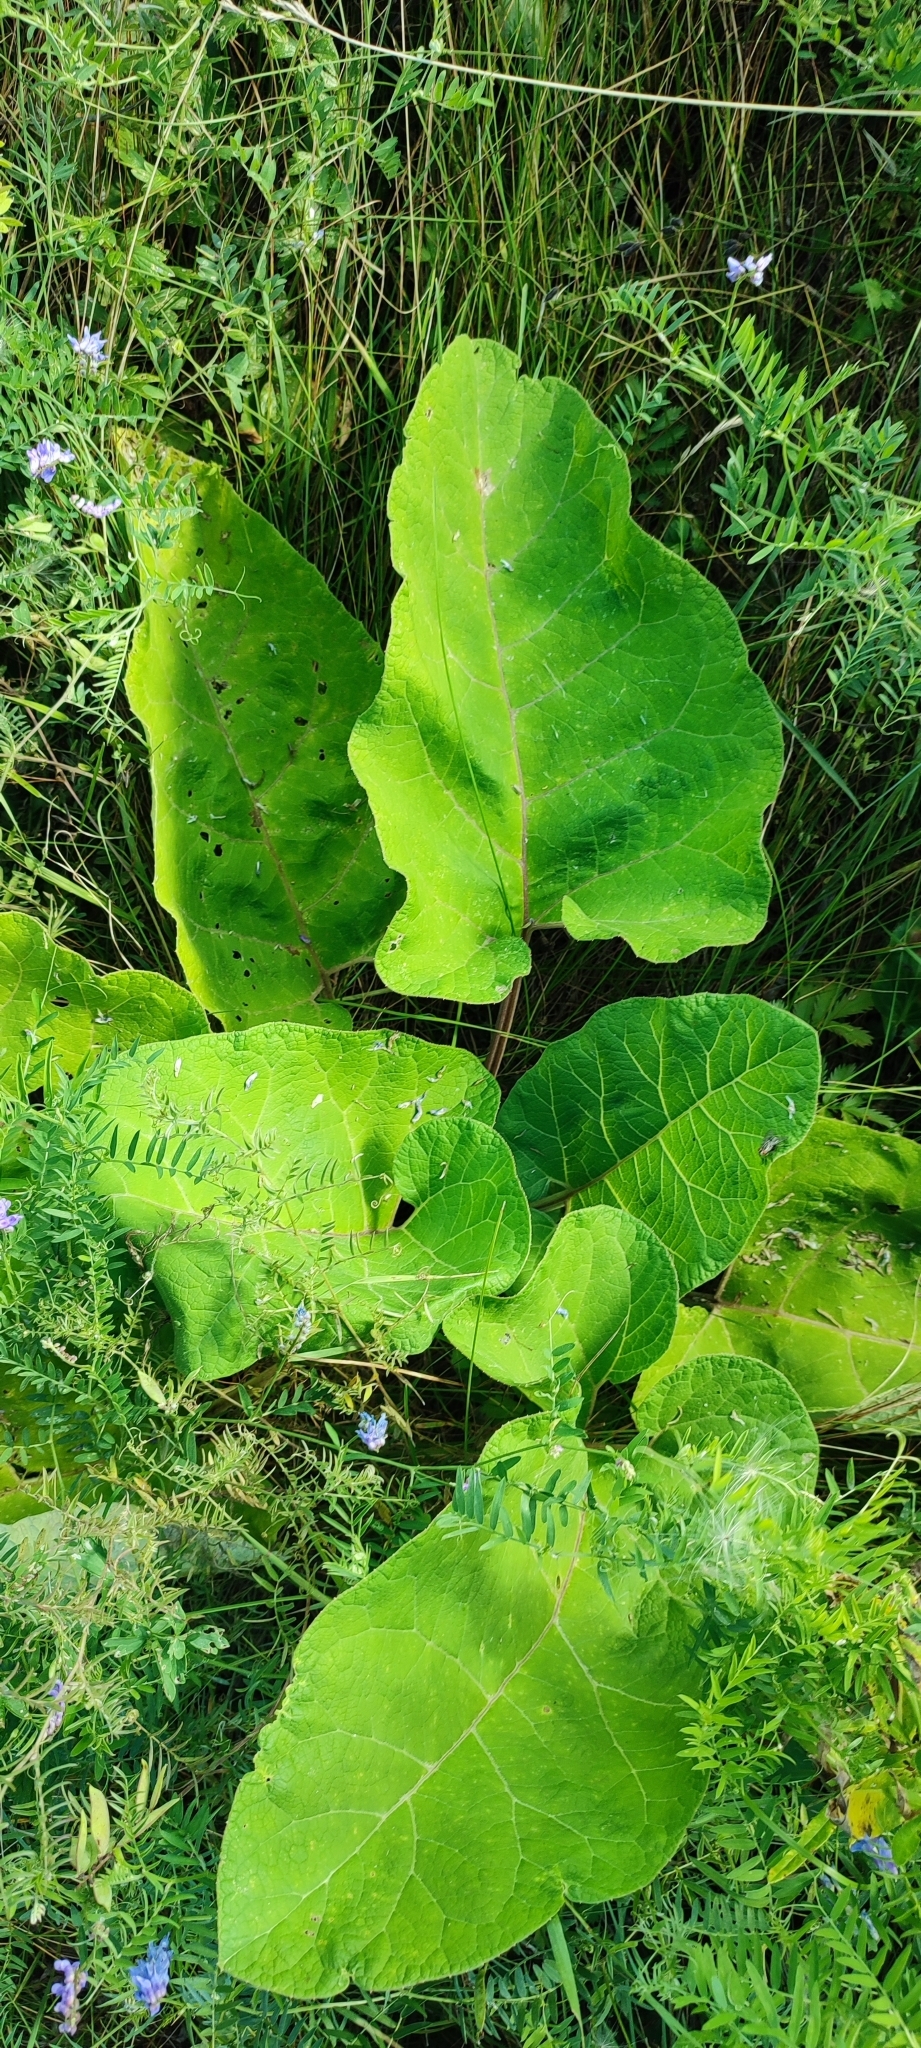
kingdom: Plantae
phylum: Tracheophyta
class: Magnoliopsida
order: Asterales
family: Asteraceae
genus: Arctium
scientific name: Arctium tomentosum
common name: Woolly burdock
